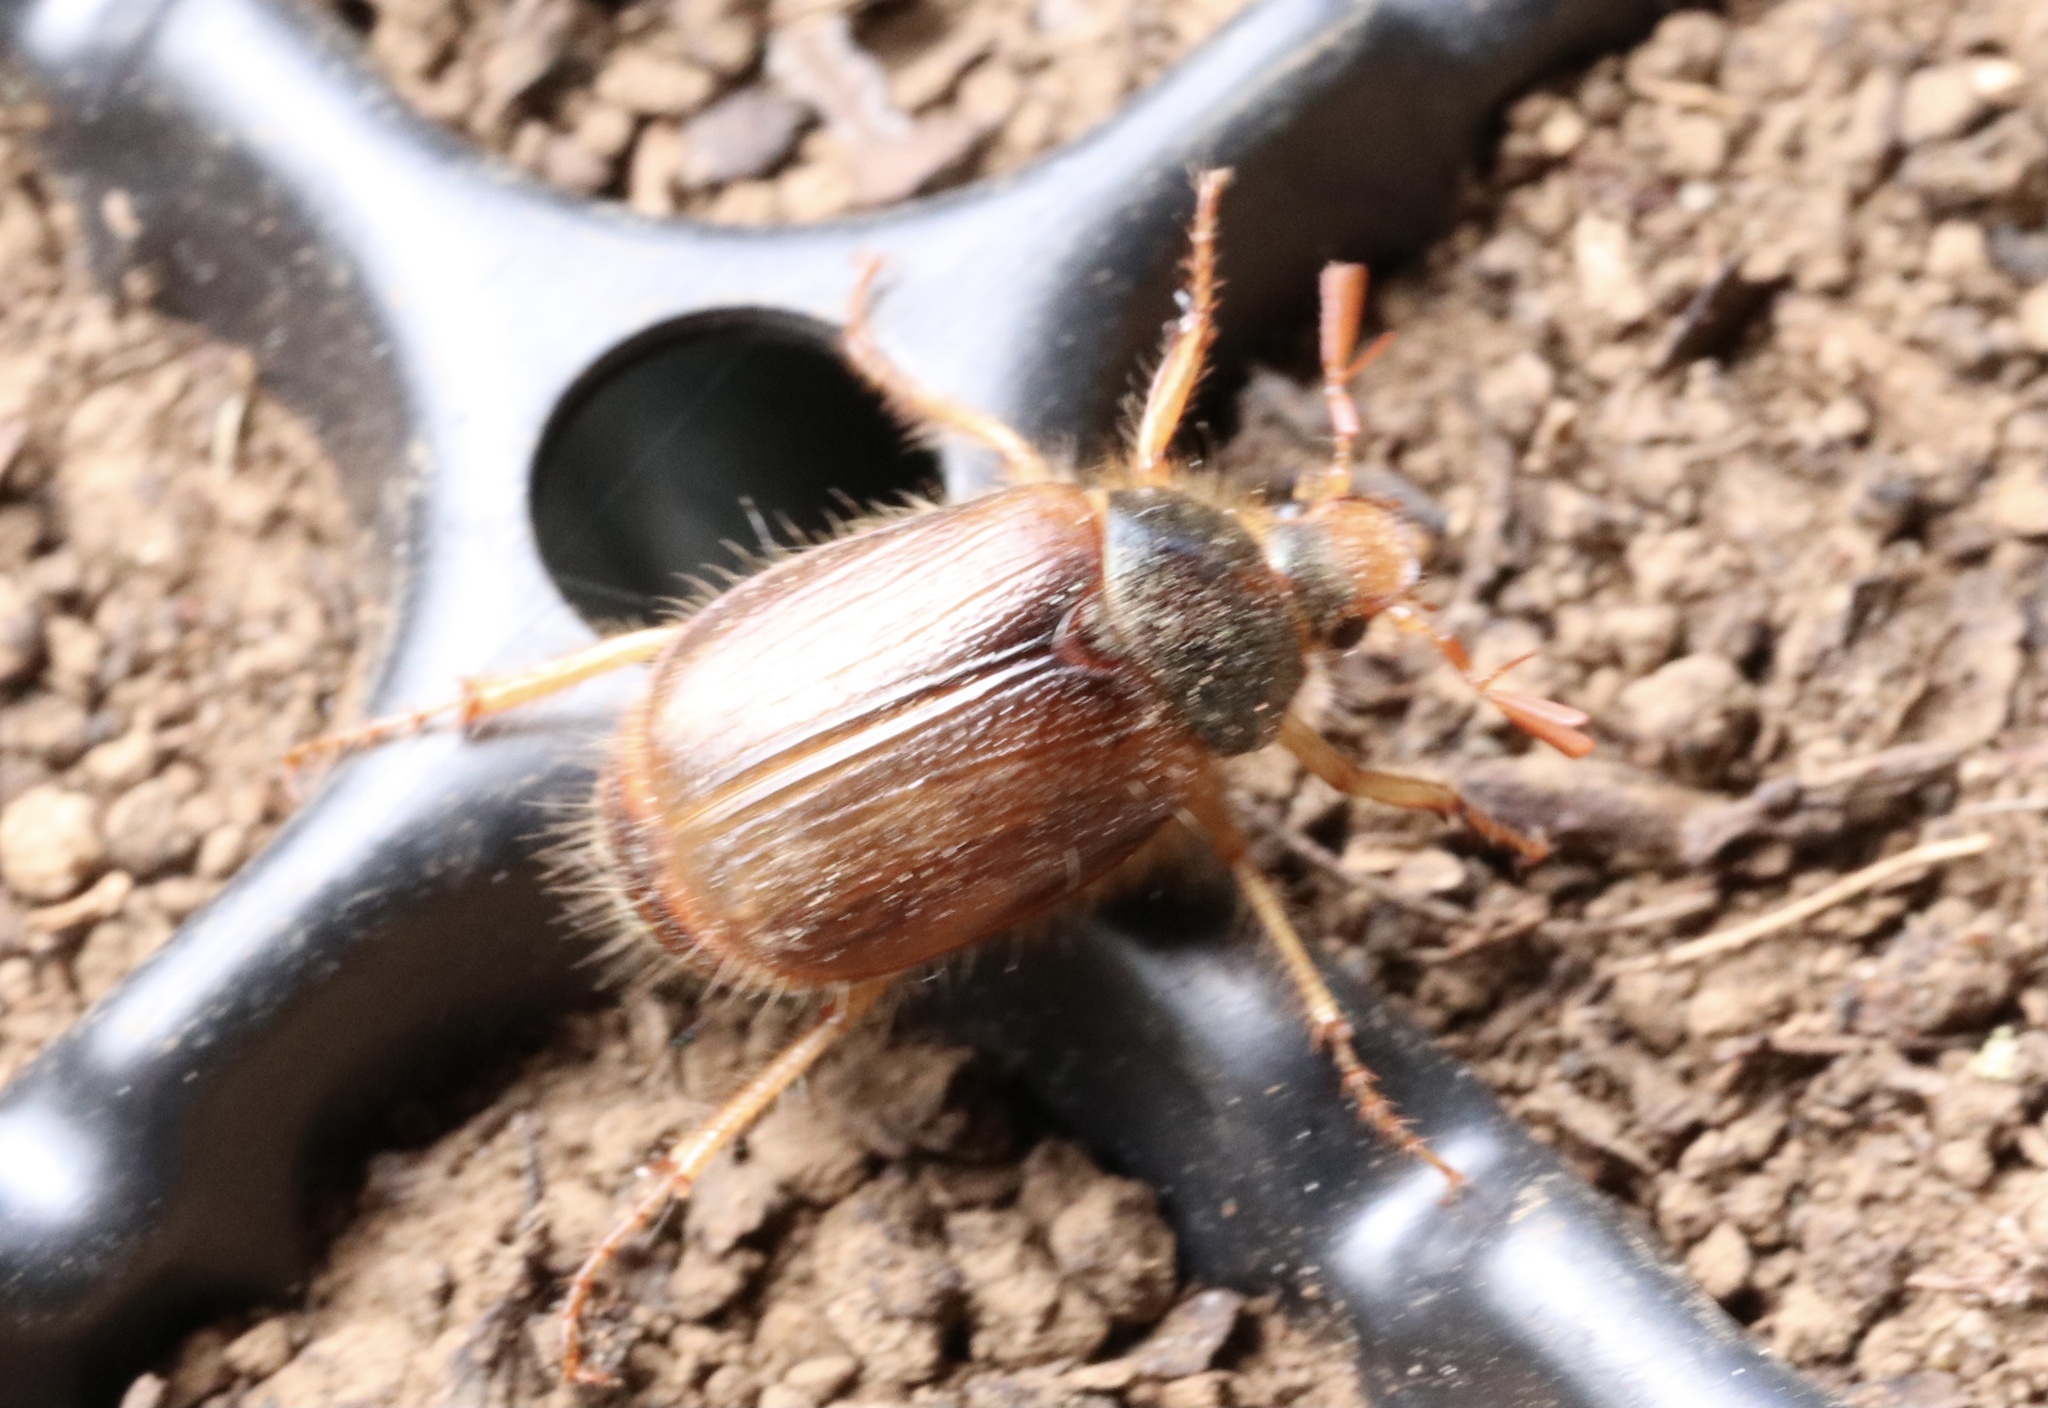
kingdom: Animalia
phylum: Arthropoda
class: Insecta
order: Coleoptera
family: Scarabaeidae
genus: Phytholaema
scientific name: Phytholaema herrmanni
